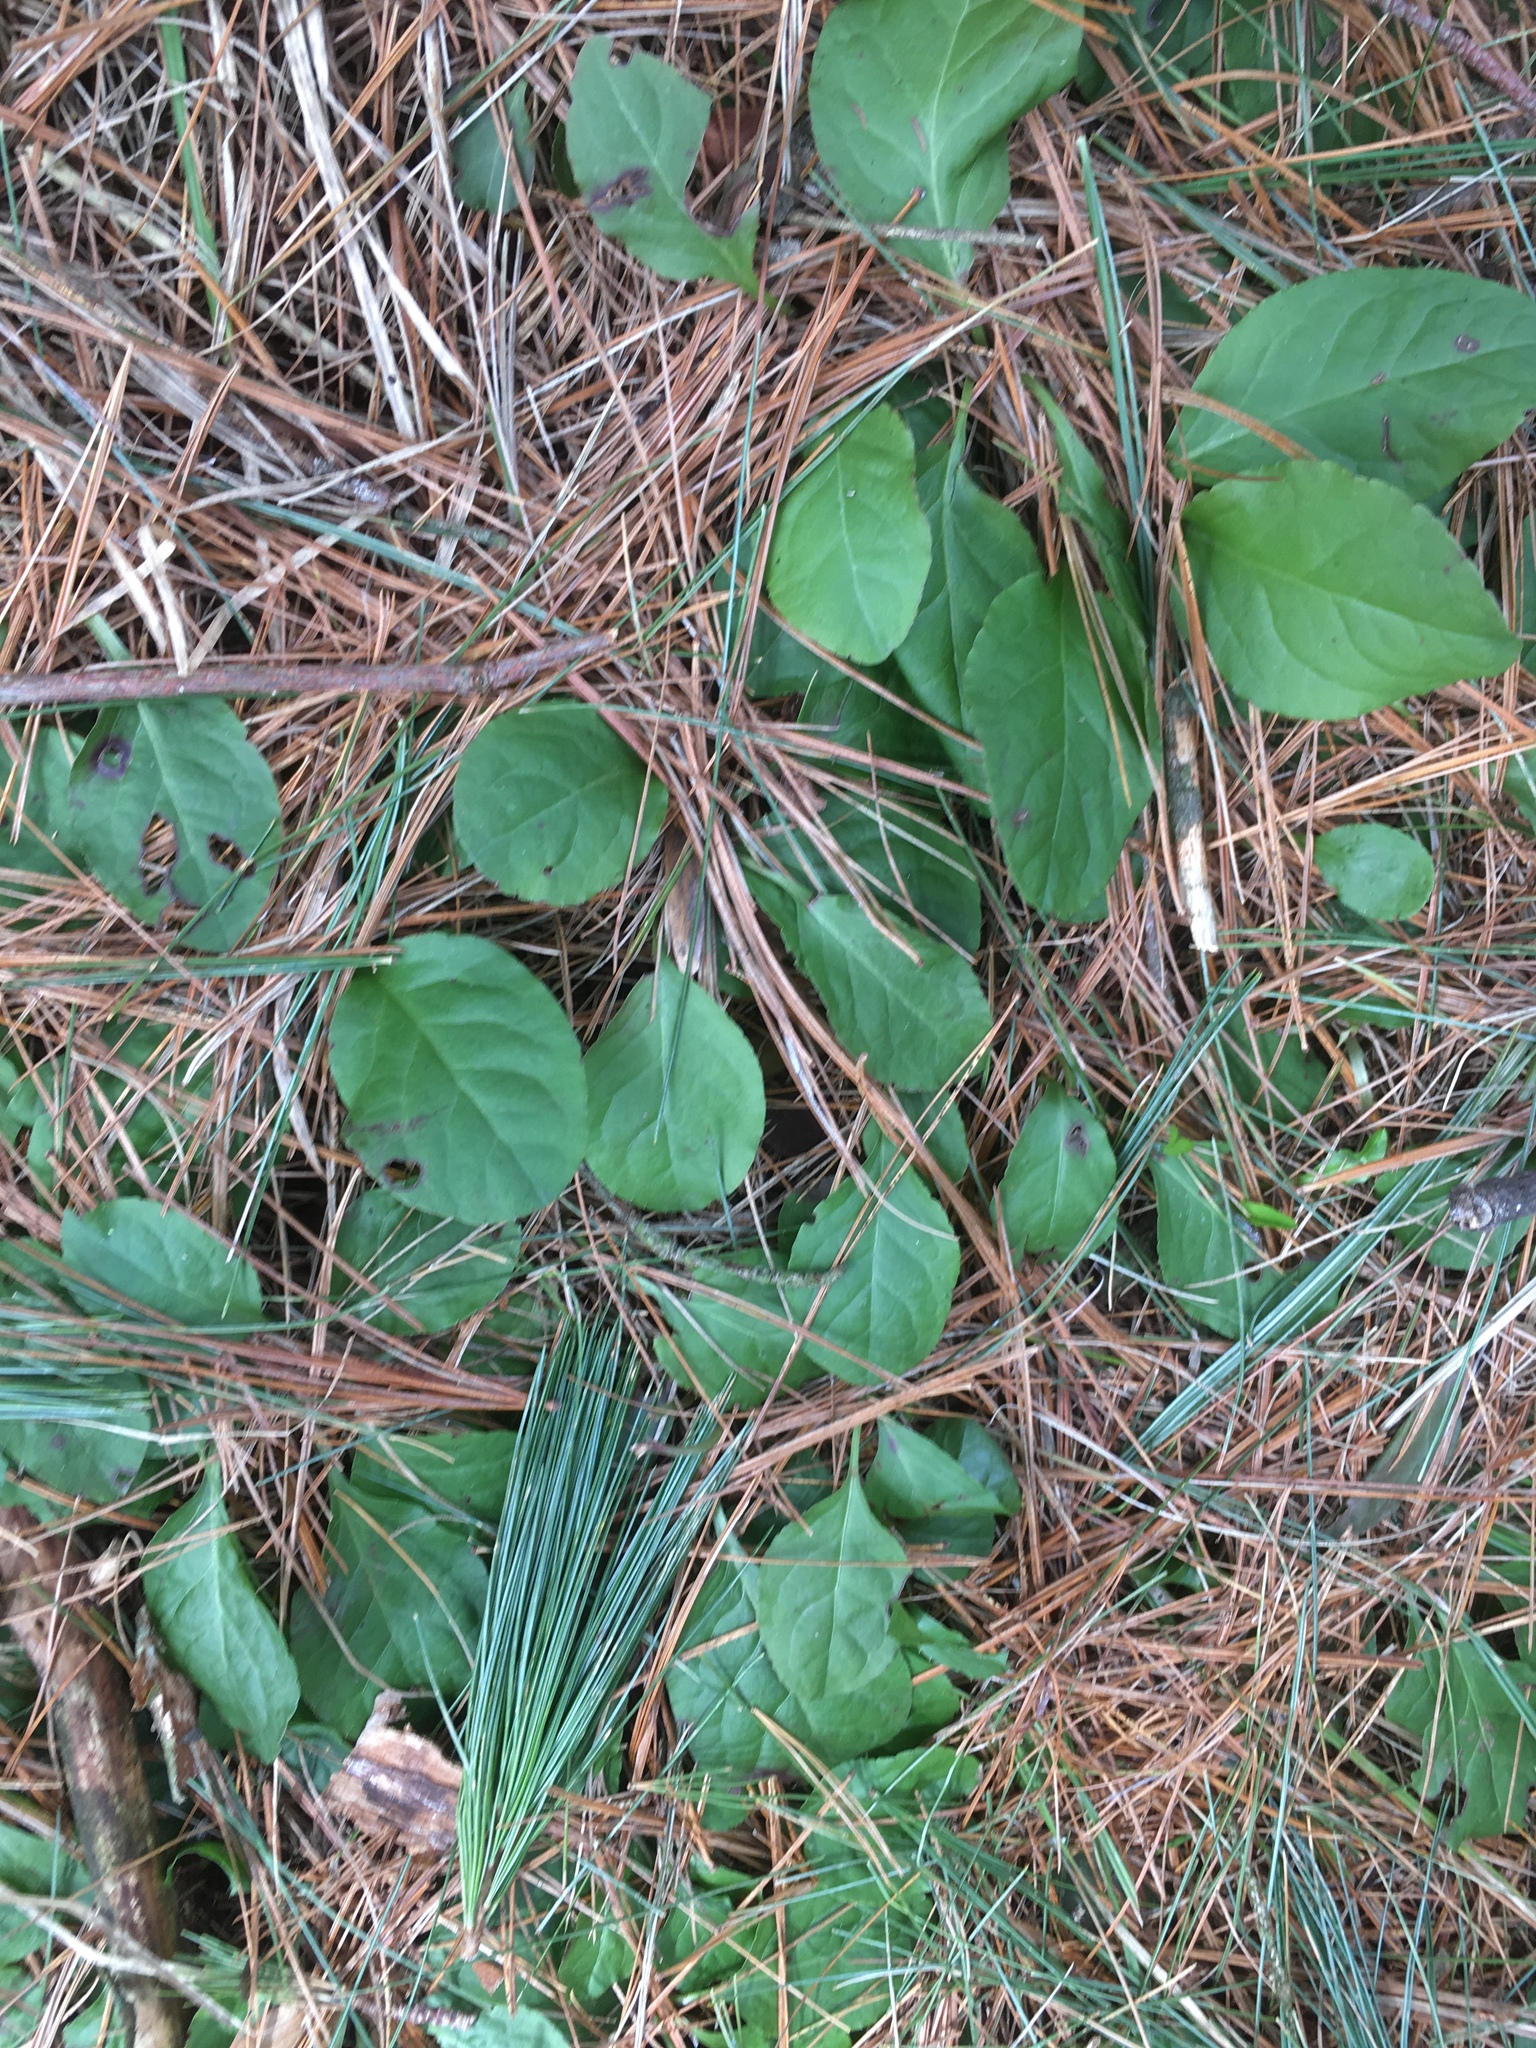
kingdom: Plantae
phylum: Tracheophyta
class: Magnoliopsida
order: Ericales
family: Ericaceae
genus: Pyrola
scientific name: Pyrola elliptica
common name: Shinleaf
